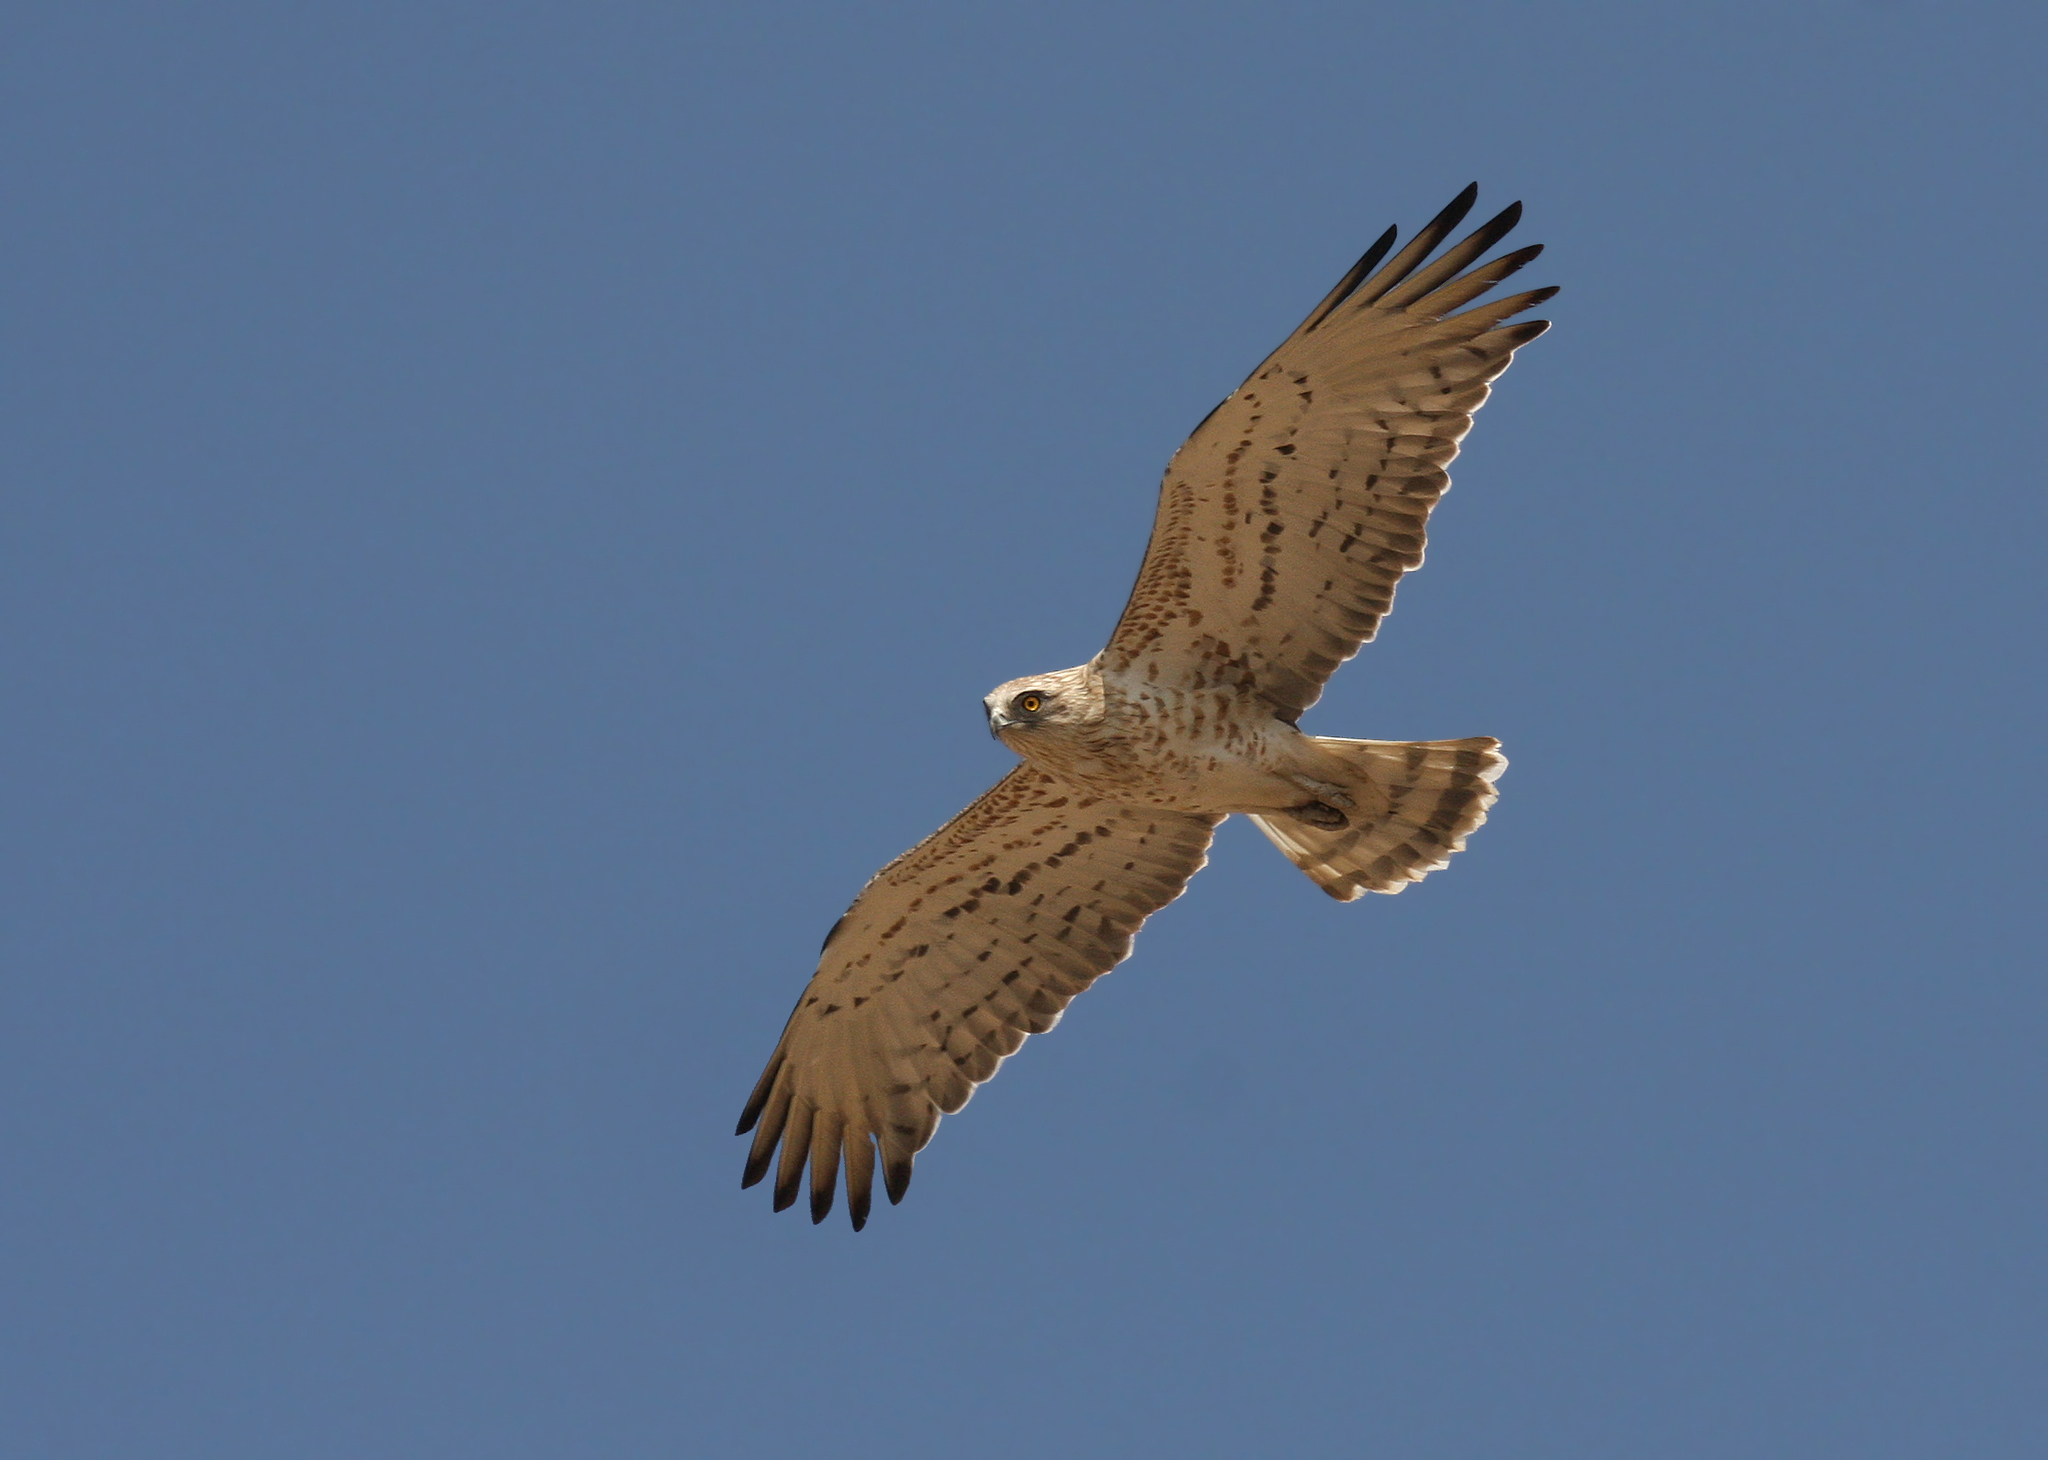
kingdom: Animalia
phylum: Chordata
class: Aves
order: Accipitriformes
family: Accipitridae
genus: Circaetus
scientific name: Circaetus gallicus
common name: Short-toed snake eagle
